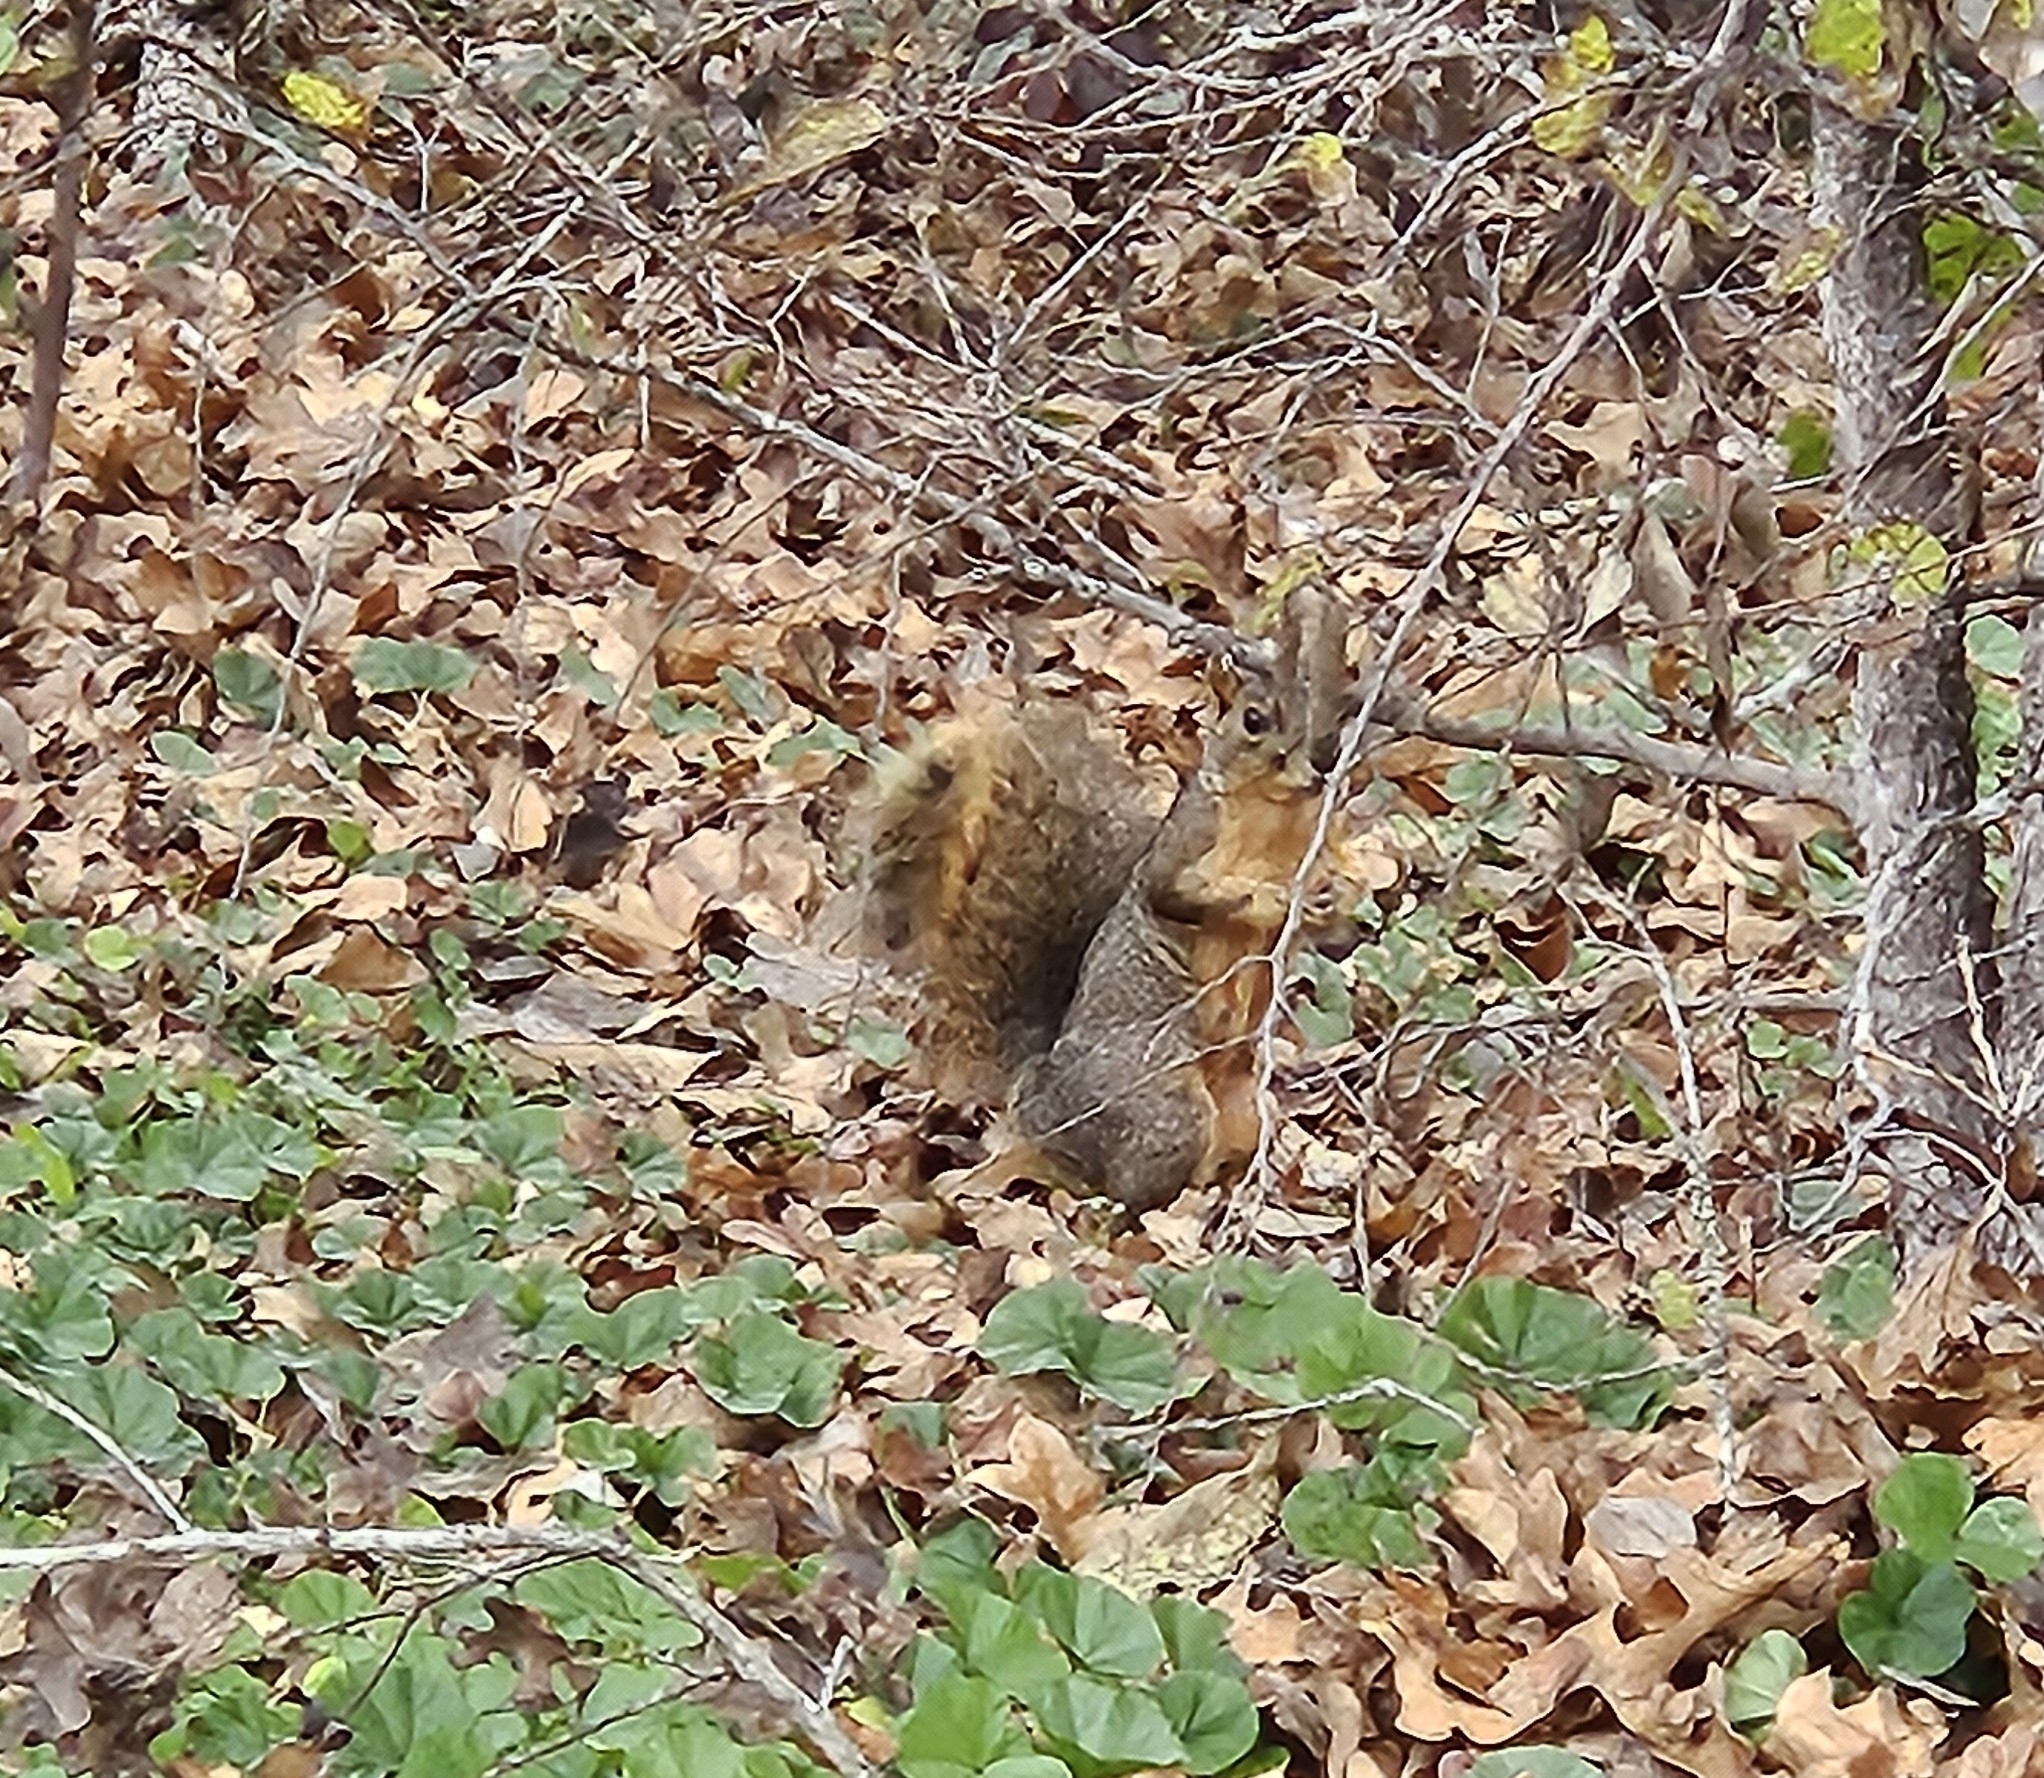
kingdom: Animalia
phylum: Chordata
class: Mammalia
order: Rodentia
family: Sciuridae
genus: Sciurus
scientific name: Sciurus niger
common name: Fox squirrel
